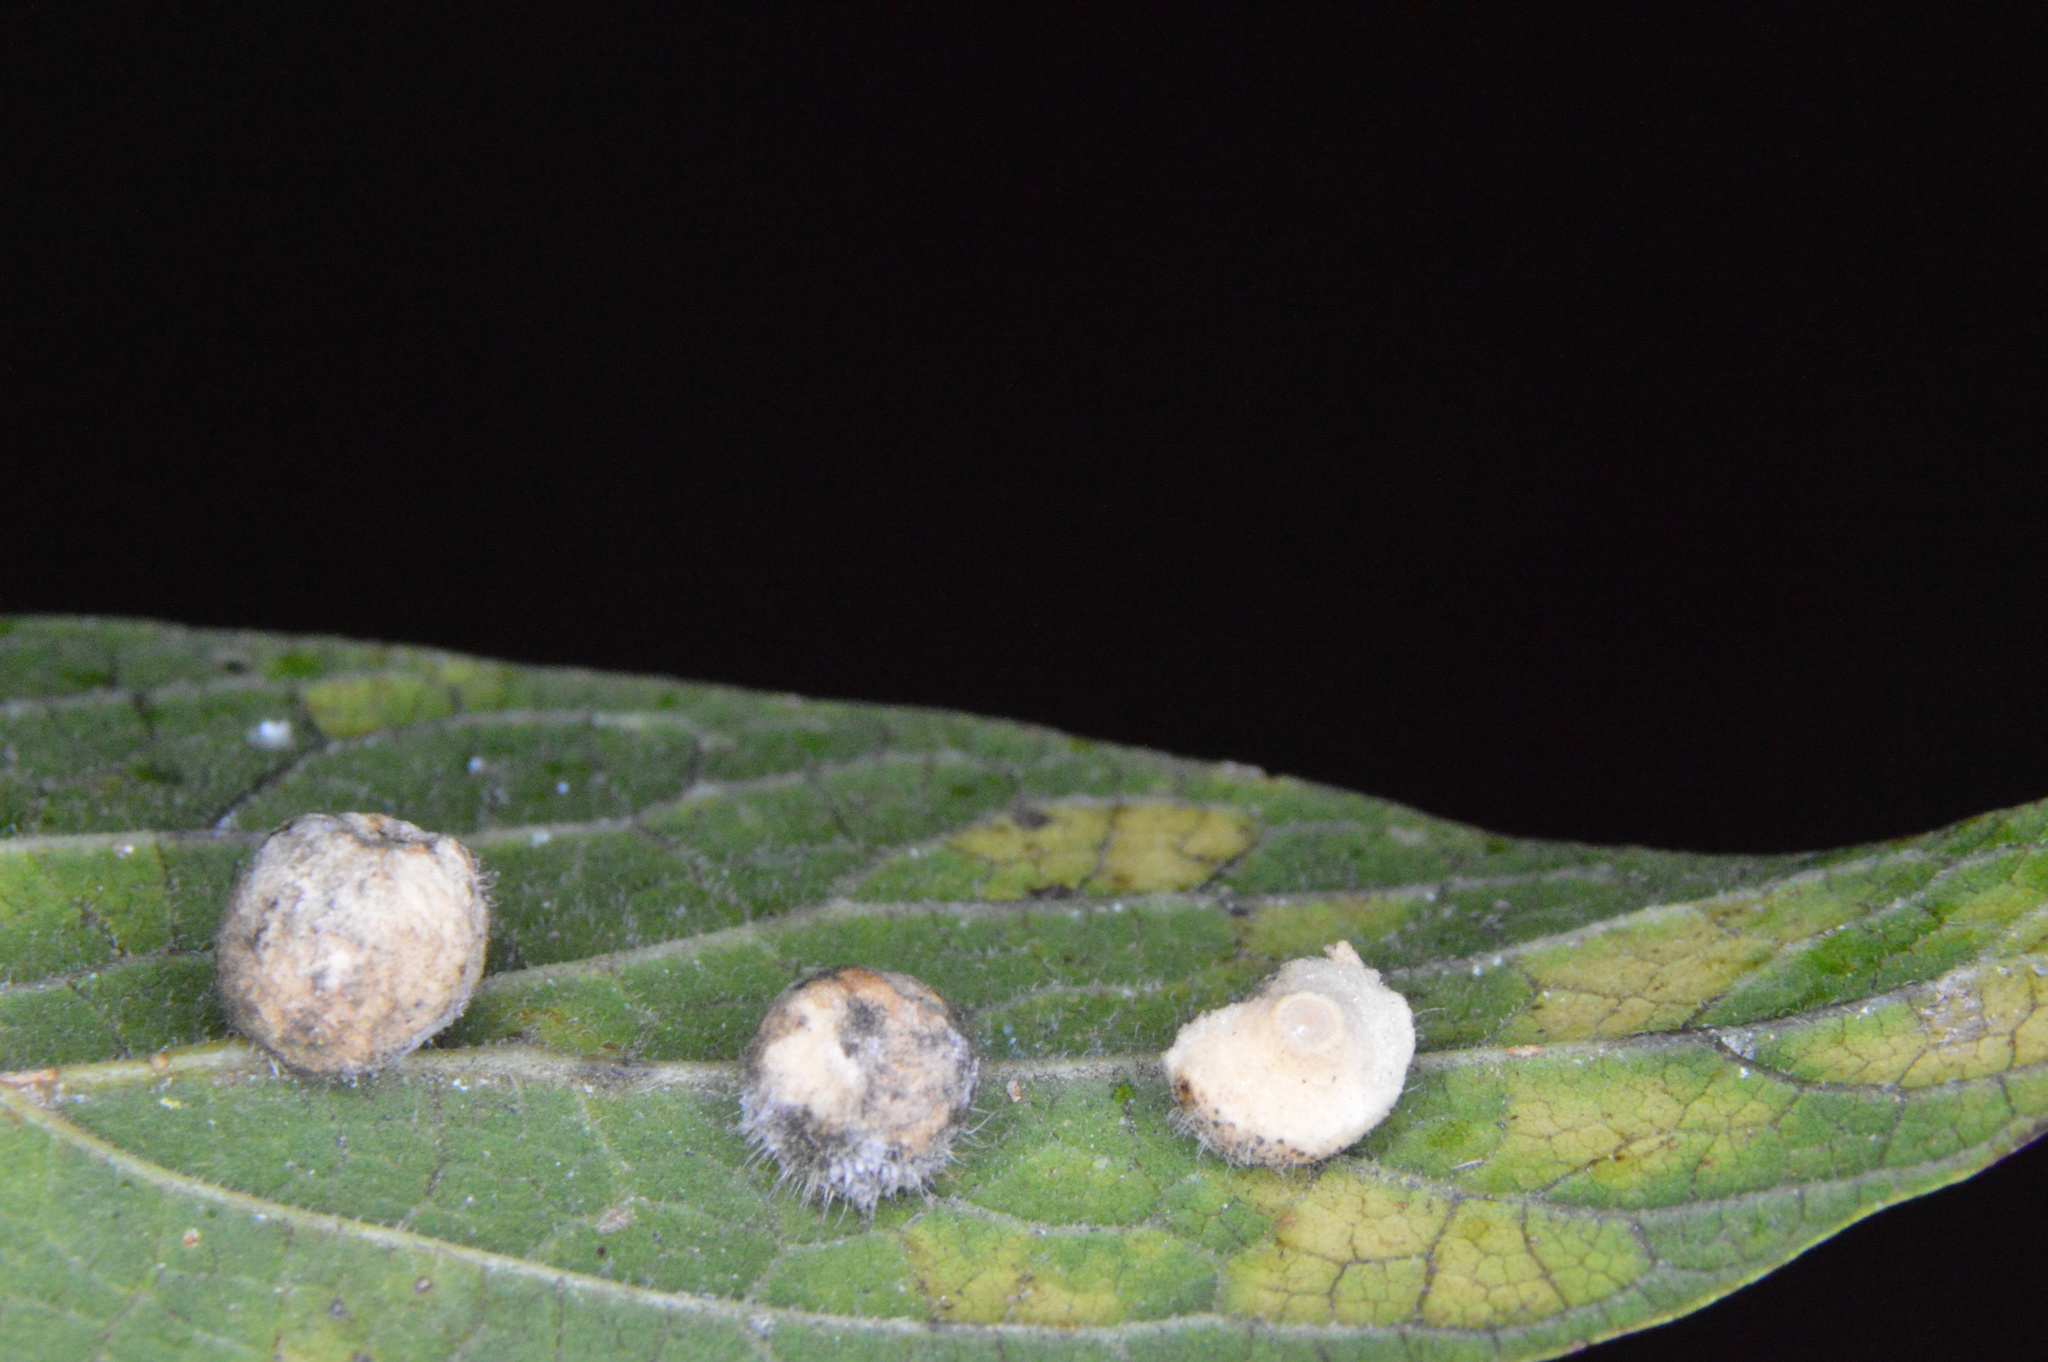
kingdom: Animalia
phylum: Arthropoda
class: Insecta
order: Diptera
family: Cecidomyiidae
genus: Celticecis
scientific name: Celticecis pubescens
